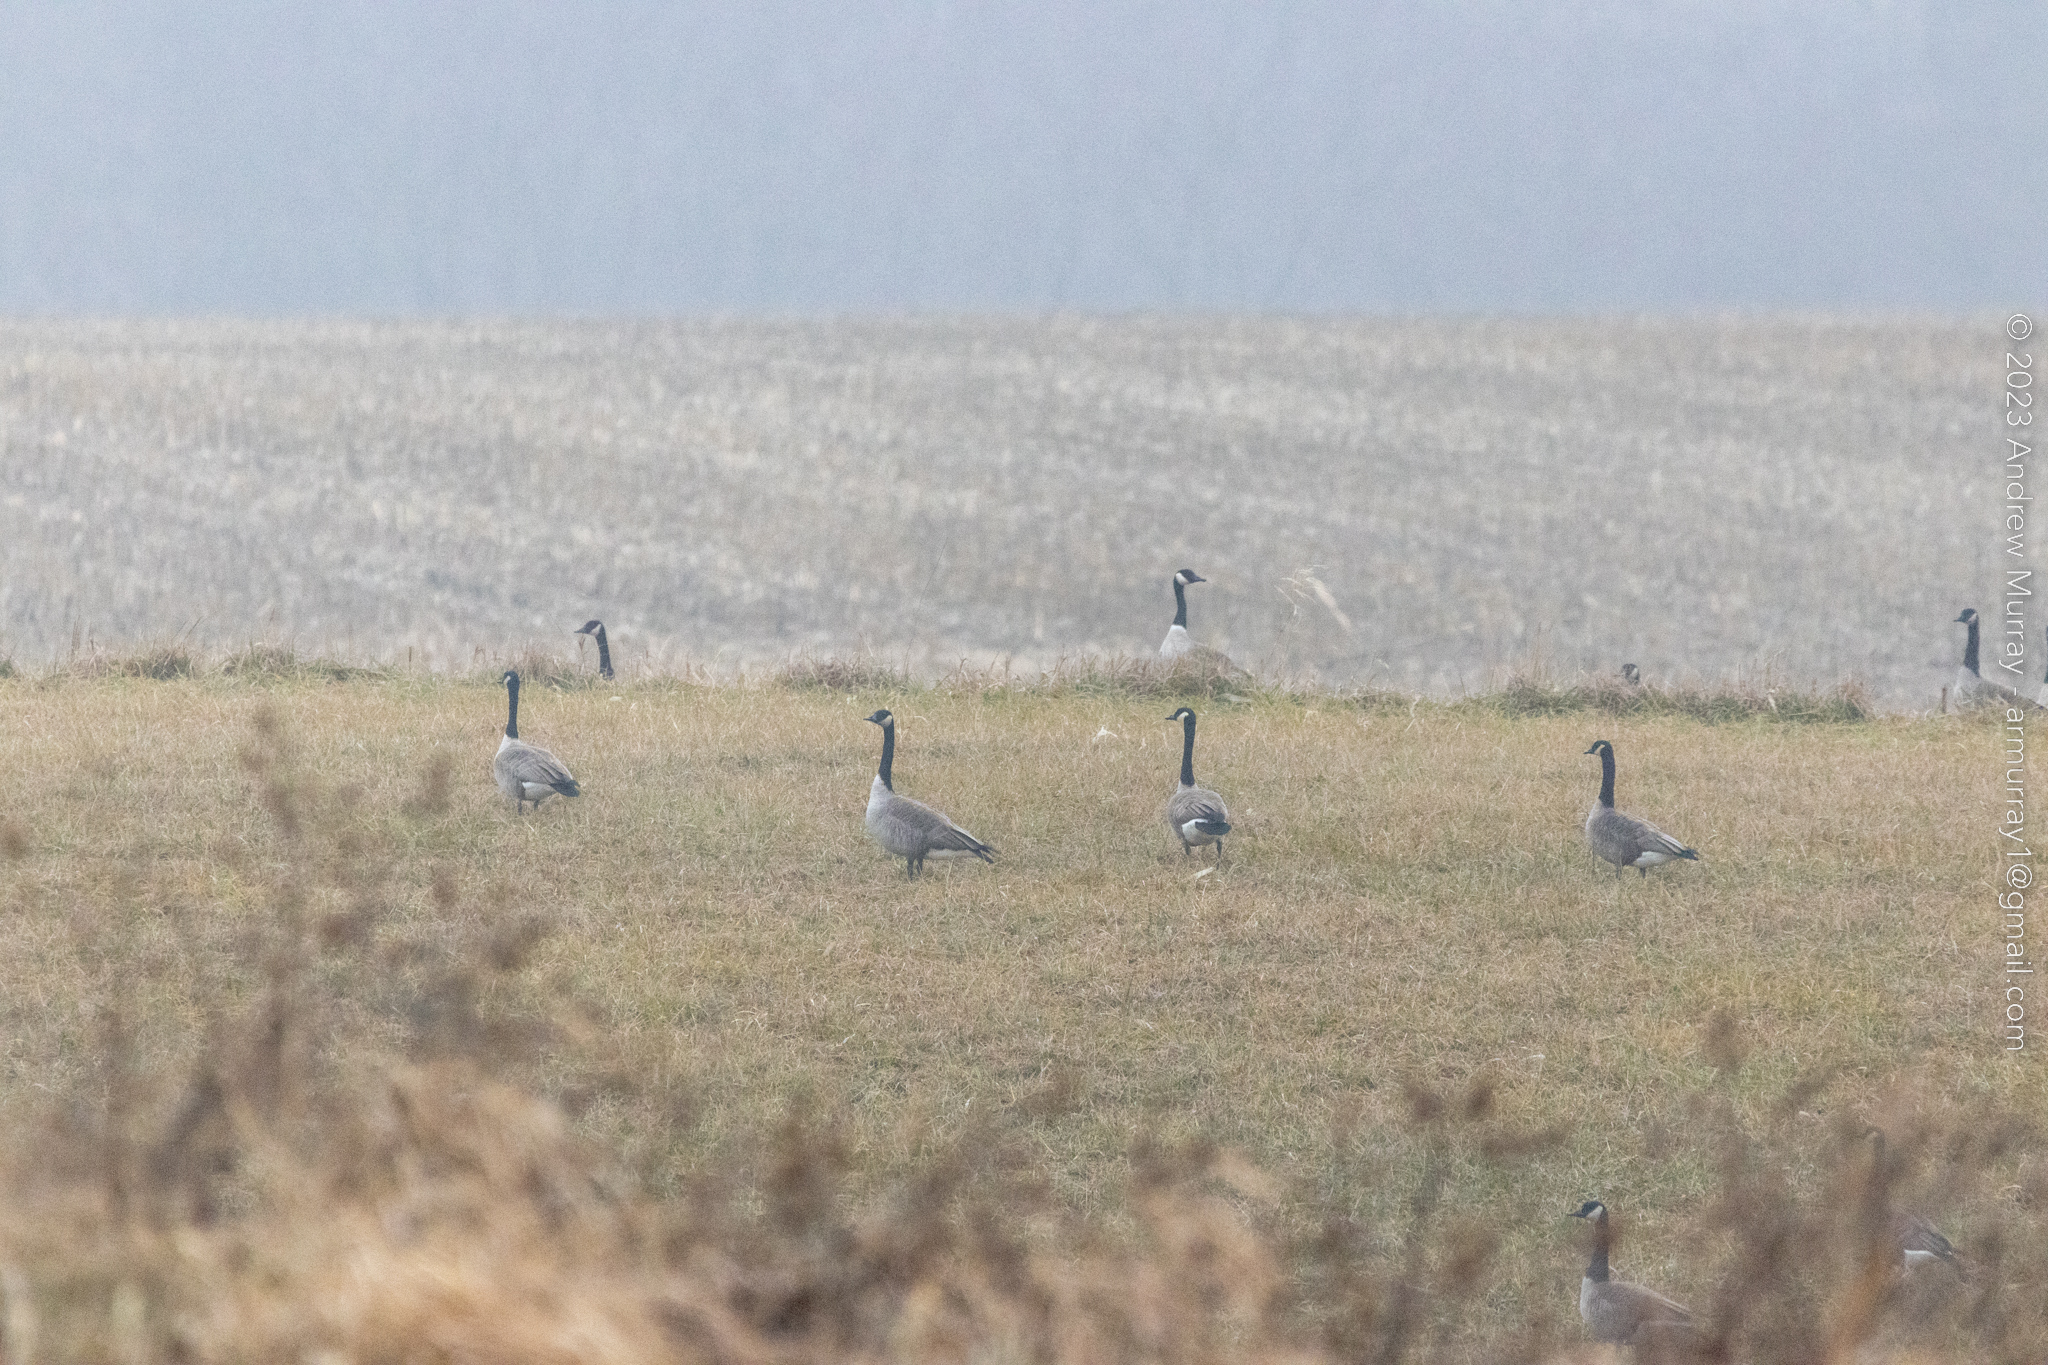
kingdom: Animalia
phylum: Chordata
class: Aves
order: Anseriformes
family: Anatidae
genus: Branta
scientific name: Branta canadensis
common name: Canada goose
